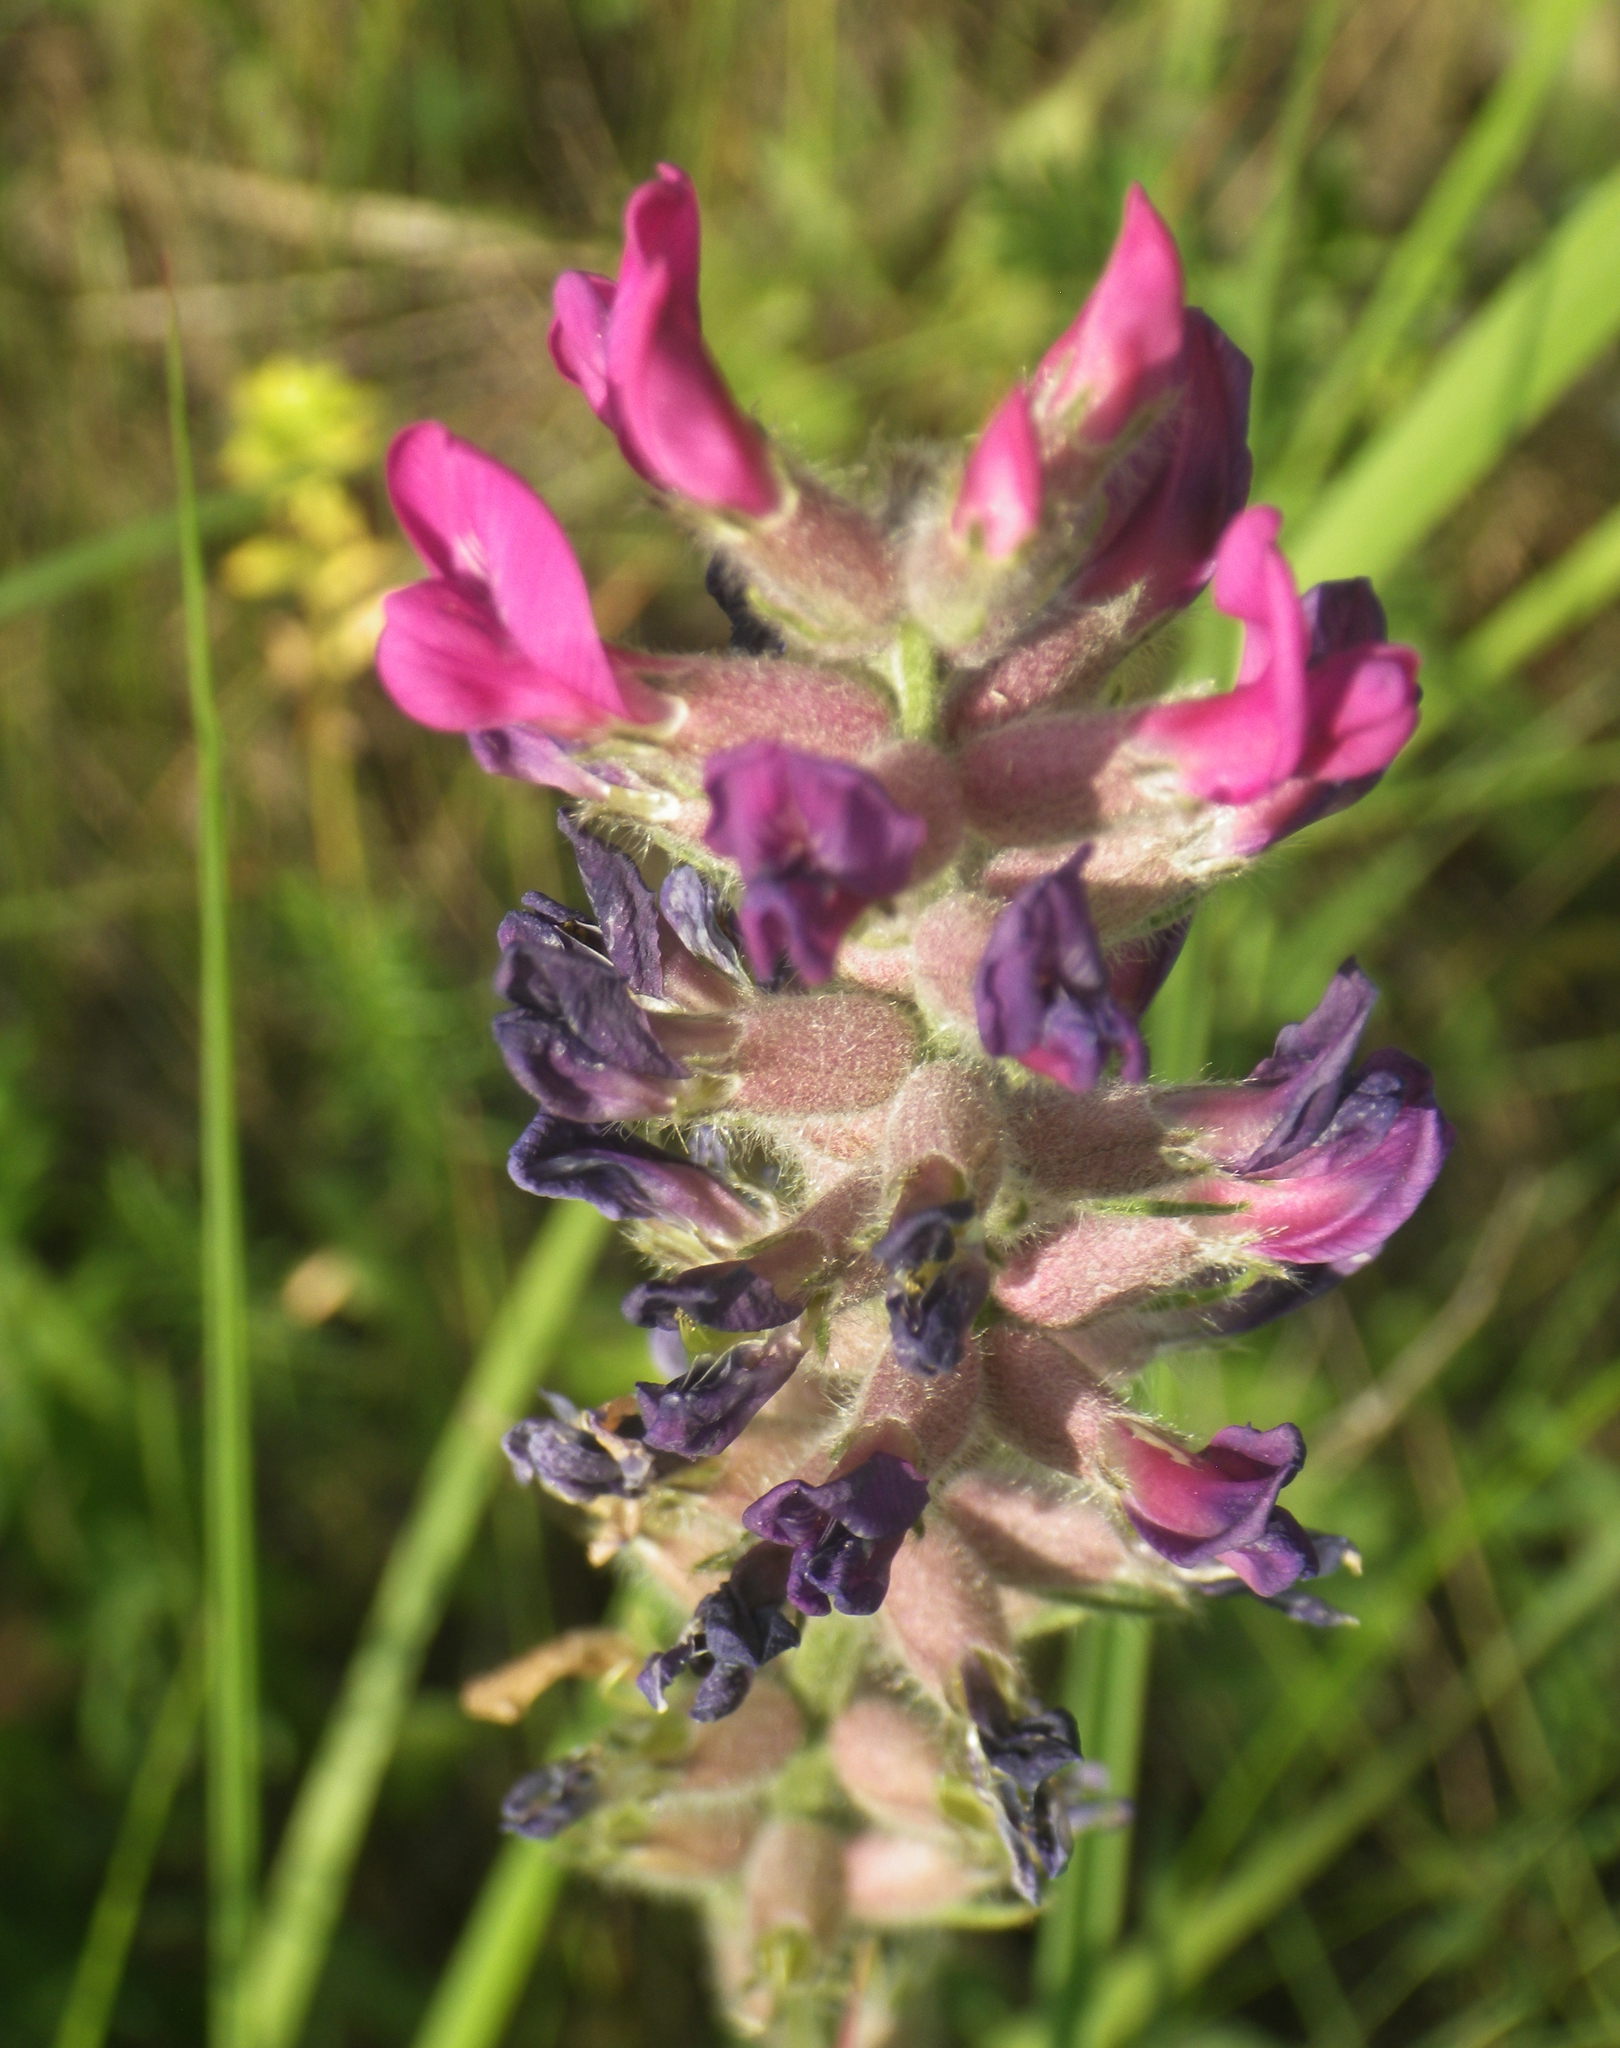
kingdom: Plantae
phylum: Tracheophyta
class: Magnoliopsida
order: Fabales
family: Fabaceae
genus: Oxytropis
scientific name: Oxytropis campanulata
